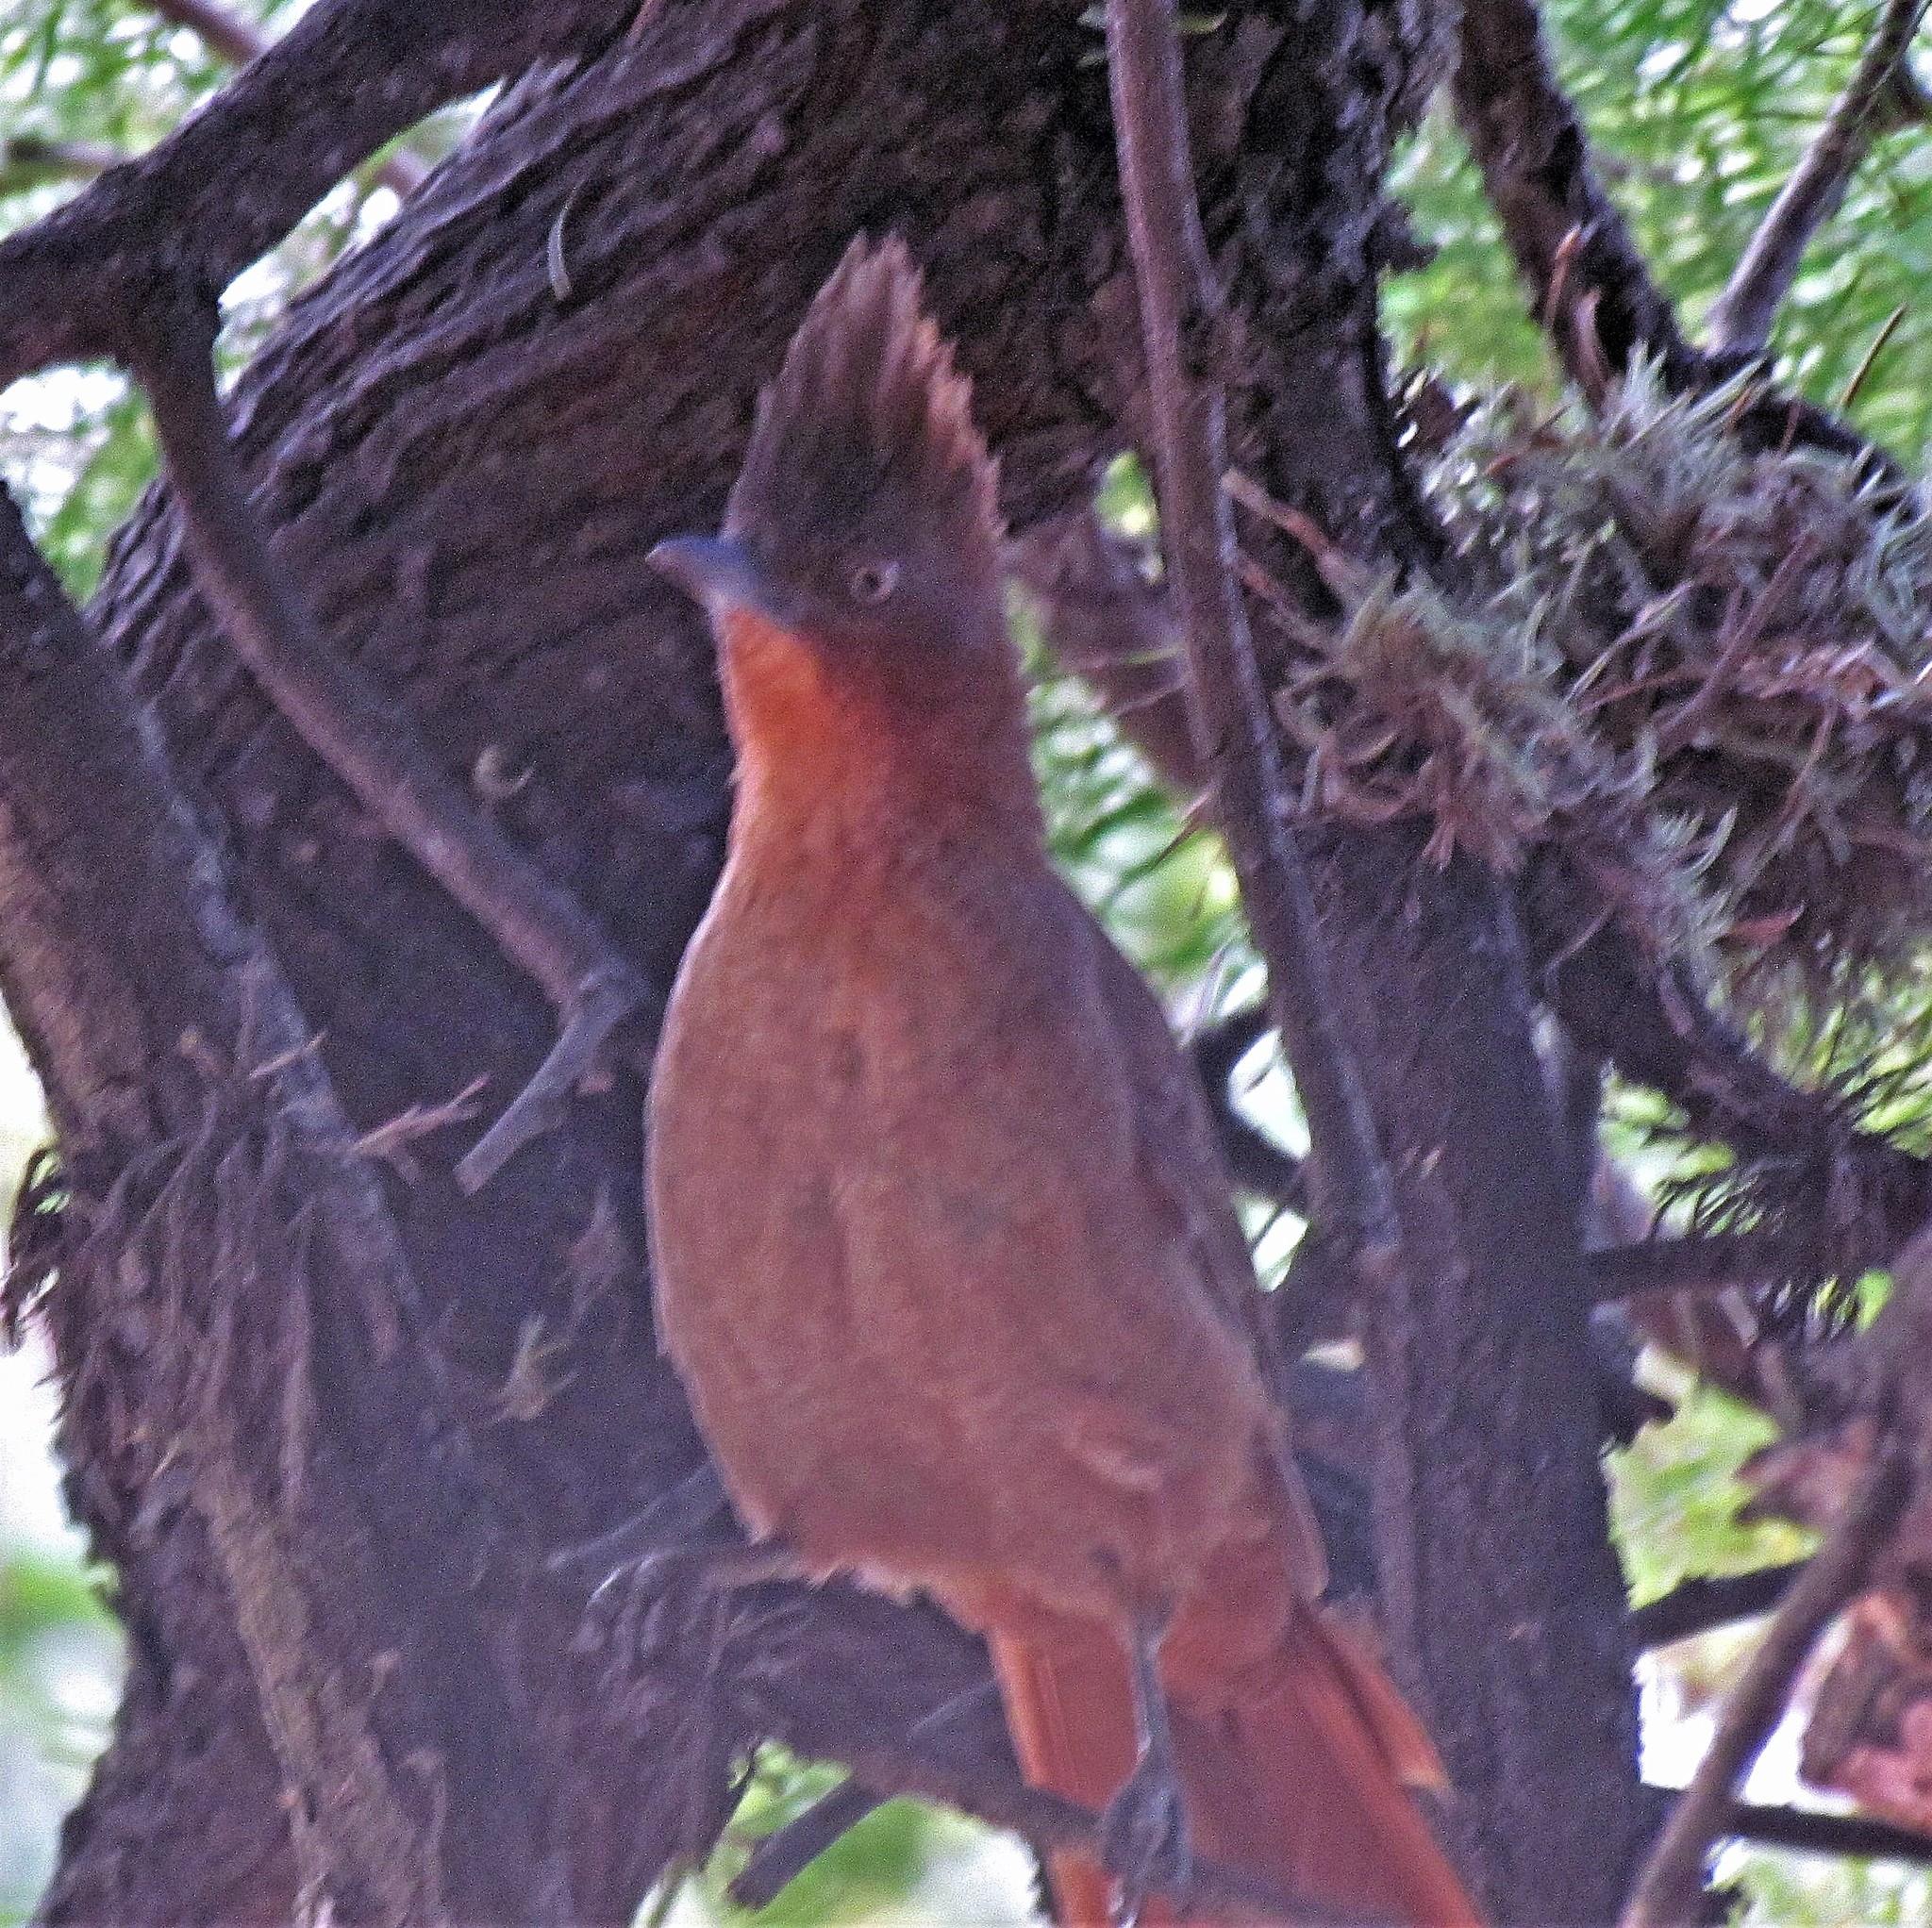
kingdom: Animalia
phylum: Chordata
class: Aves
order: Passeriformes
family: Furnariidae
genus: Pseudoseisura
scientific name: Pseudoseisura lophotes
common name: Brown cacholote
